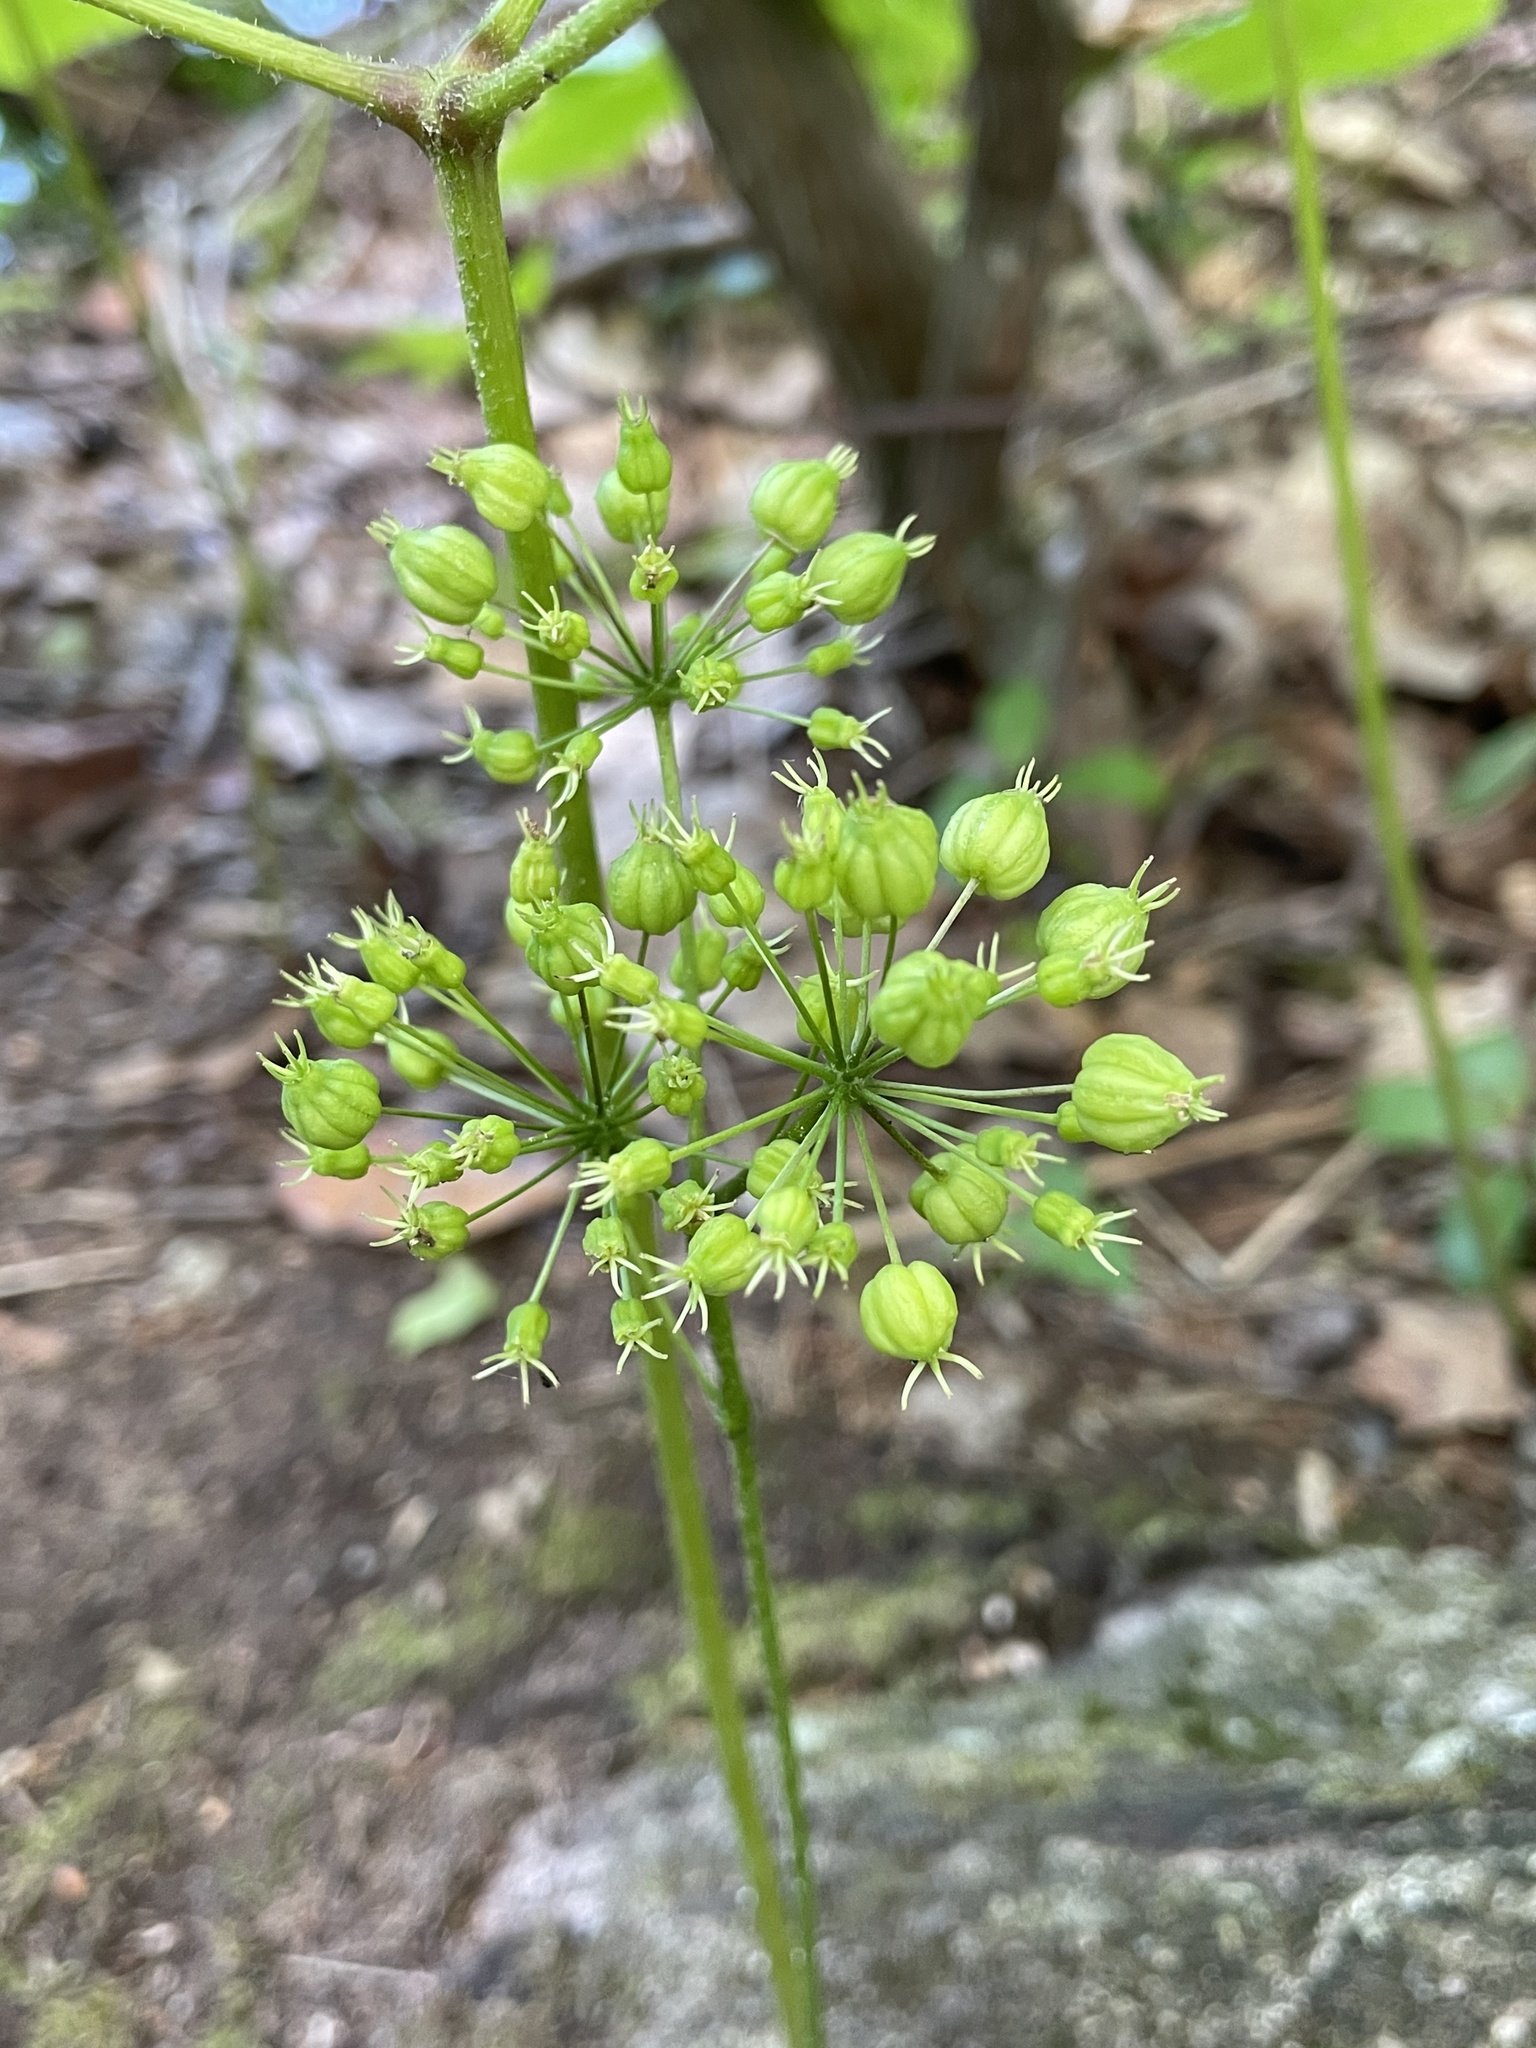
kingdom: Plantae
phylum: Tracheophyta
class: Magnoliopsida
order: Apiales
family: Araliaceae
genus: Aralia
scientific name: Aralia nudicaulis
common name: Wild sarsaparilla
